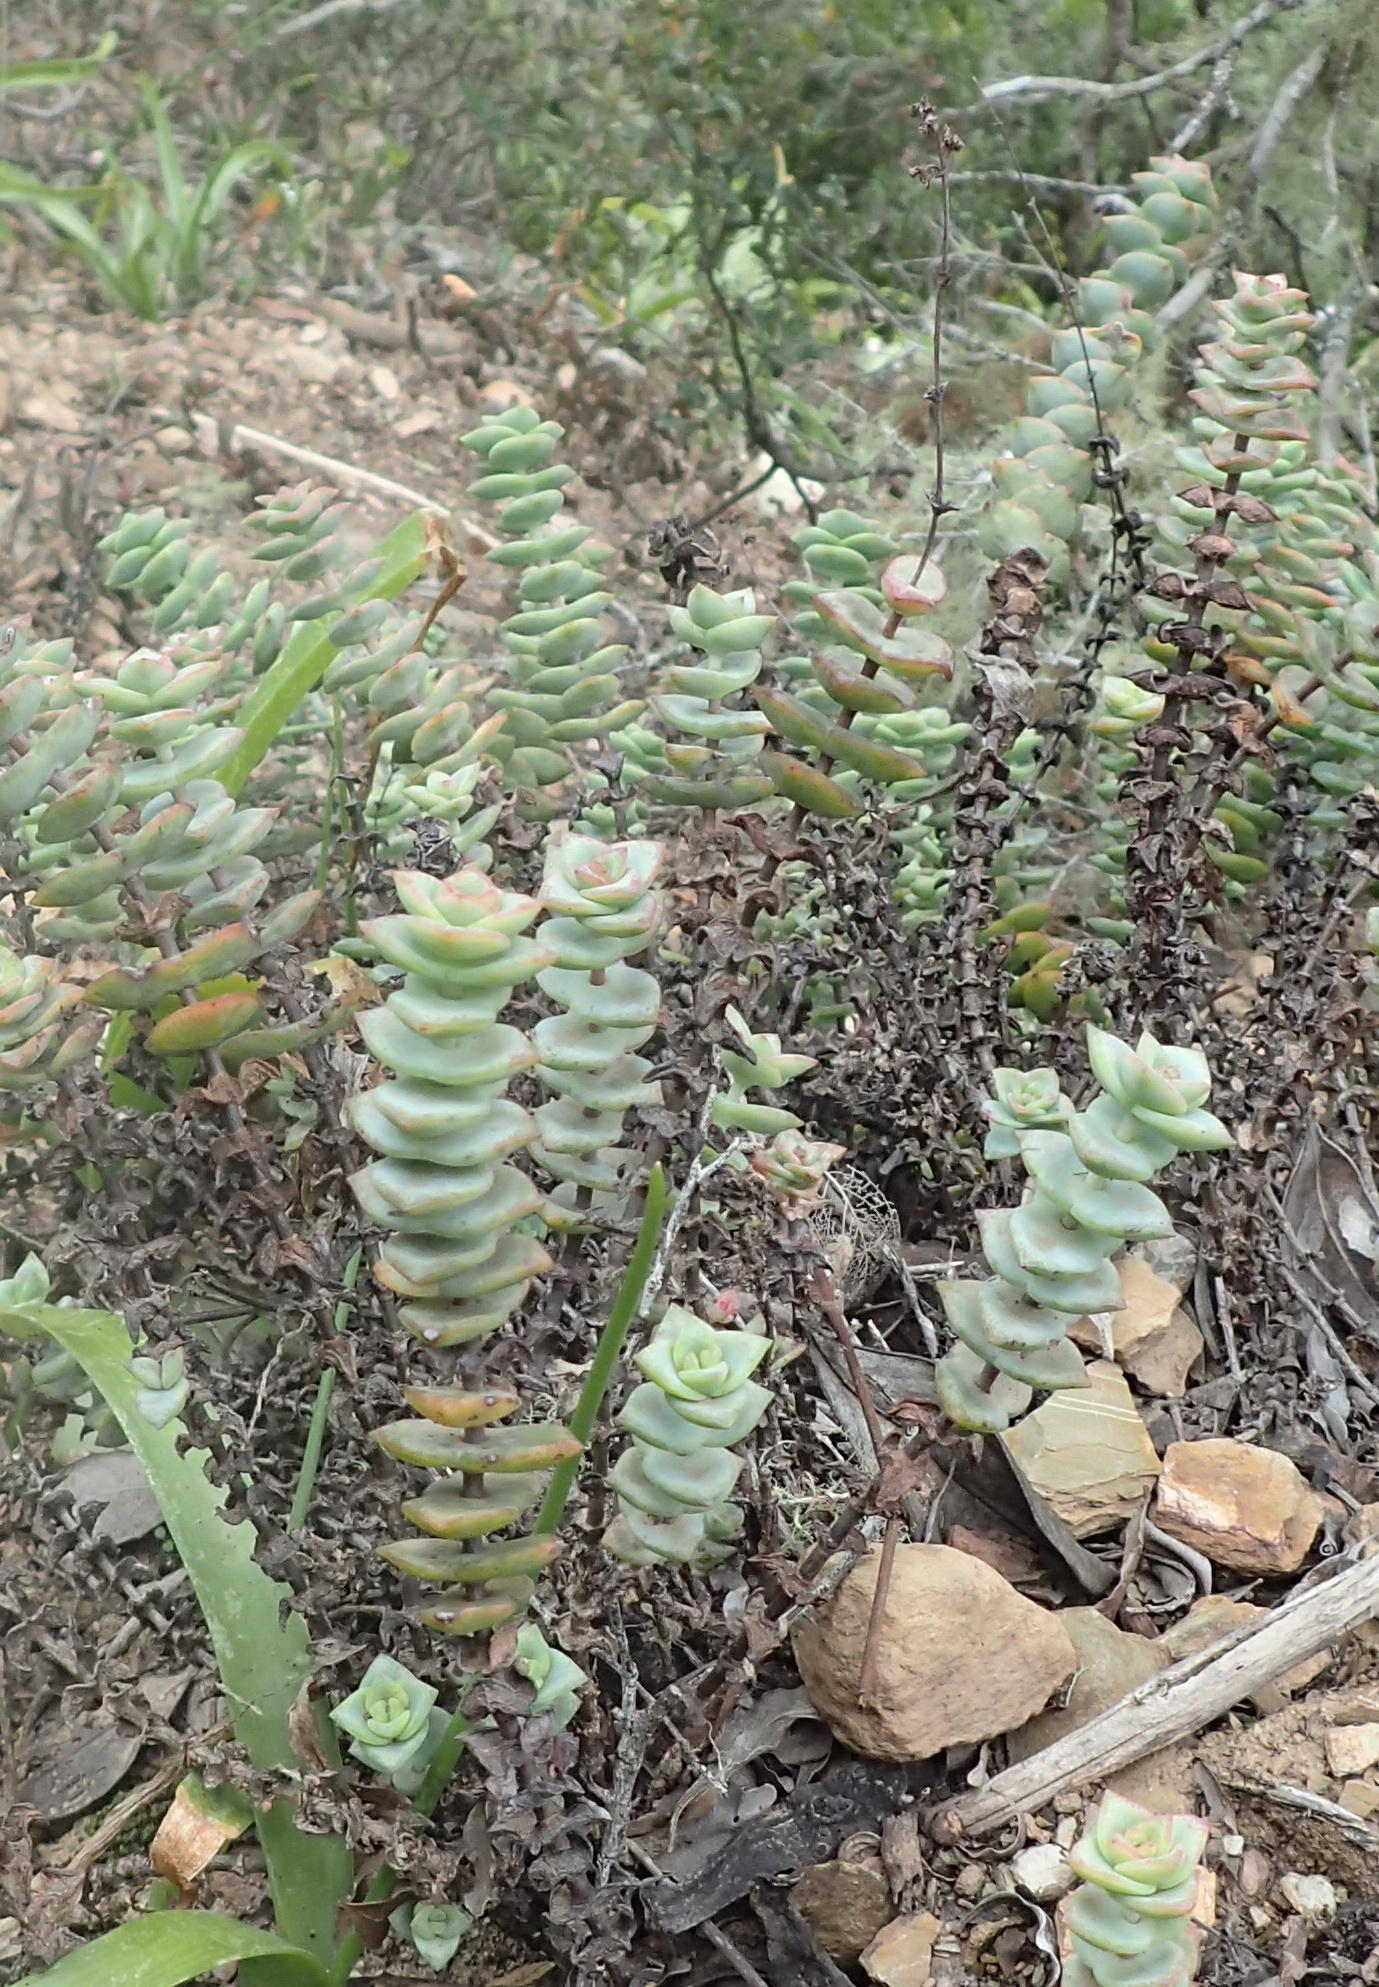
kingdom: Plantae
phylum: Tracheophyta
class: Magnoliopsida
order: Saxifragales
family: Crassulaceae
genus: Crassula
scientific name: Crassula perforata
